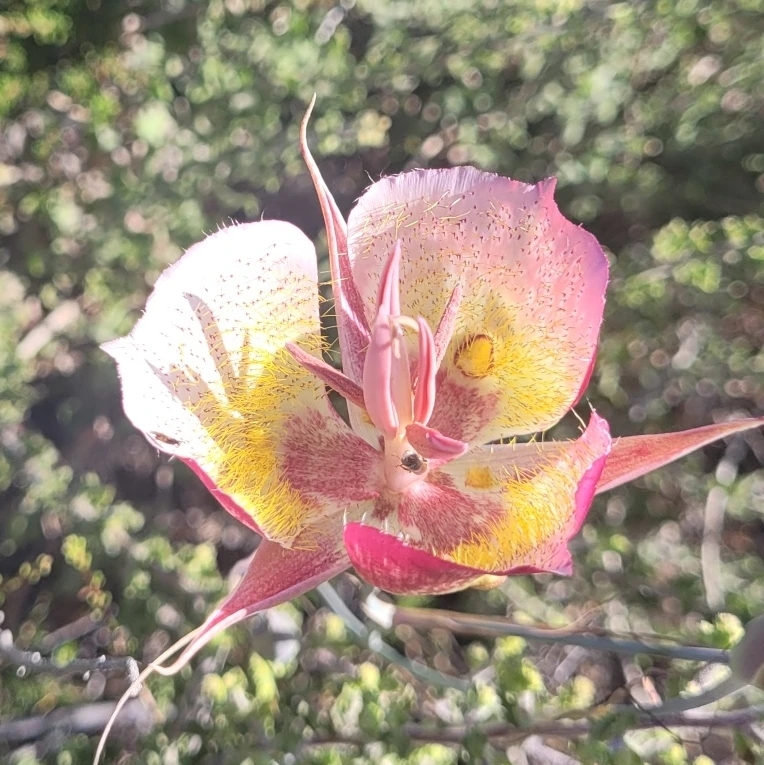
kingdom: Plantae
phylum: Tracheophyta
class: Liliopsida
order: Liliales
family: Liliaceae
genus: Calochortus
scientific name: Calochortus plummerae
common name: Plummer's mariposa-lily
